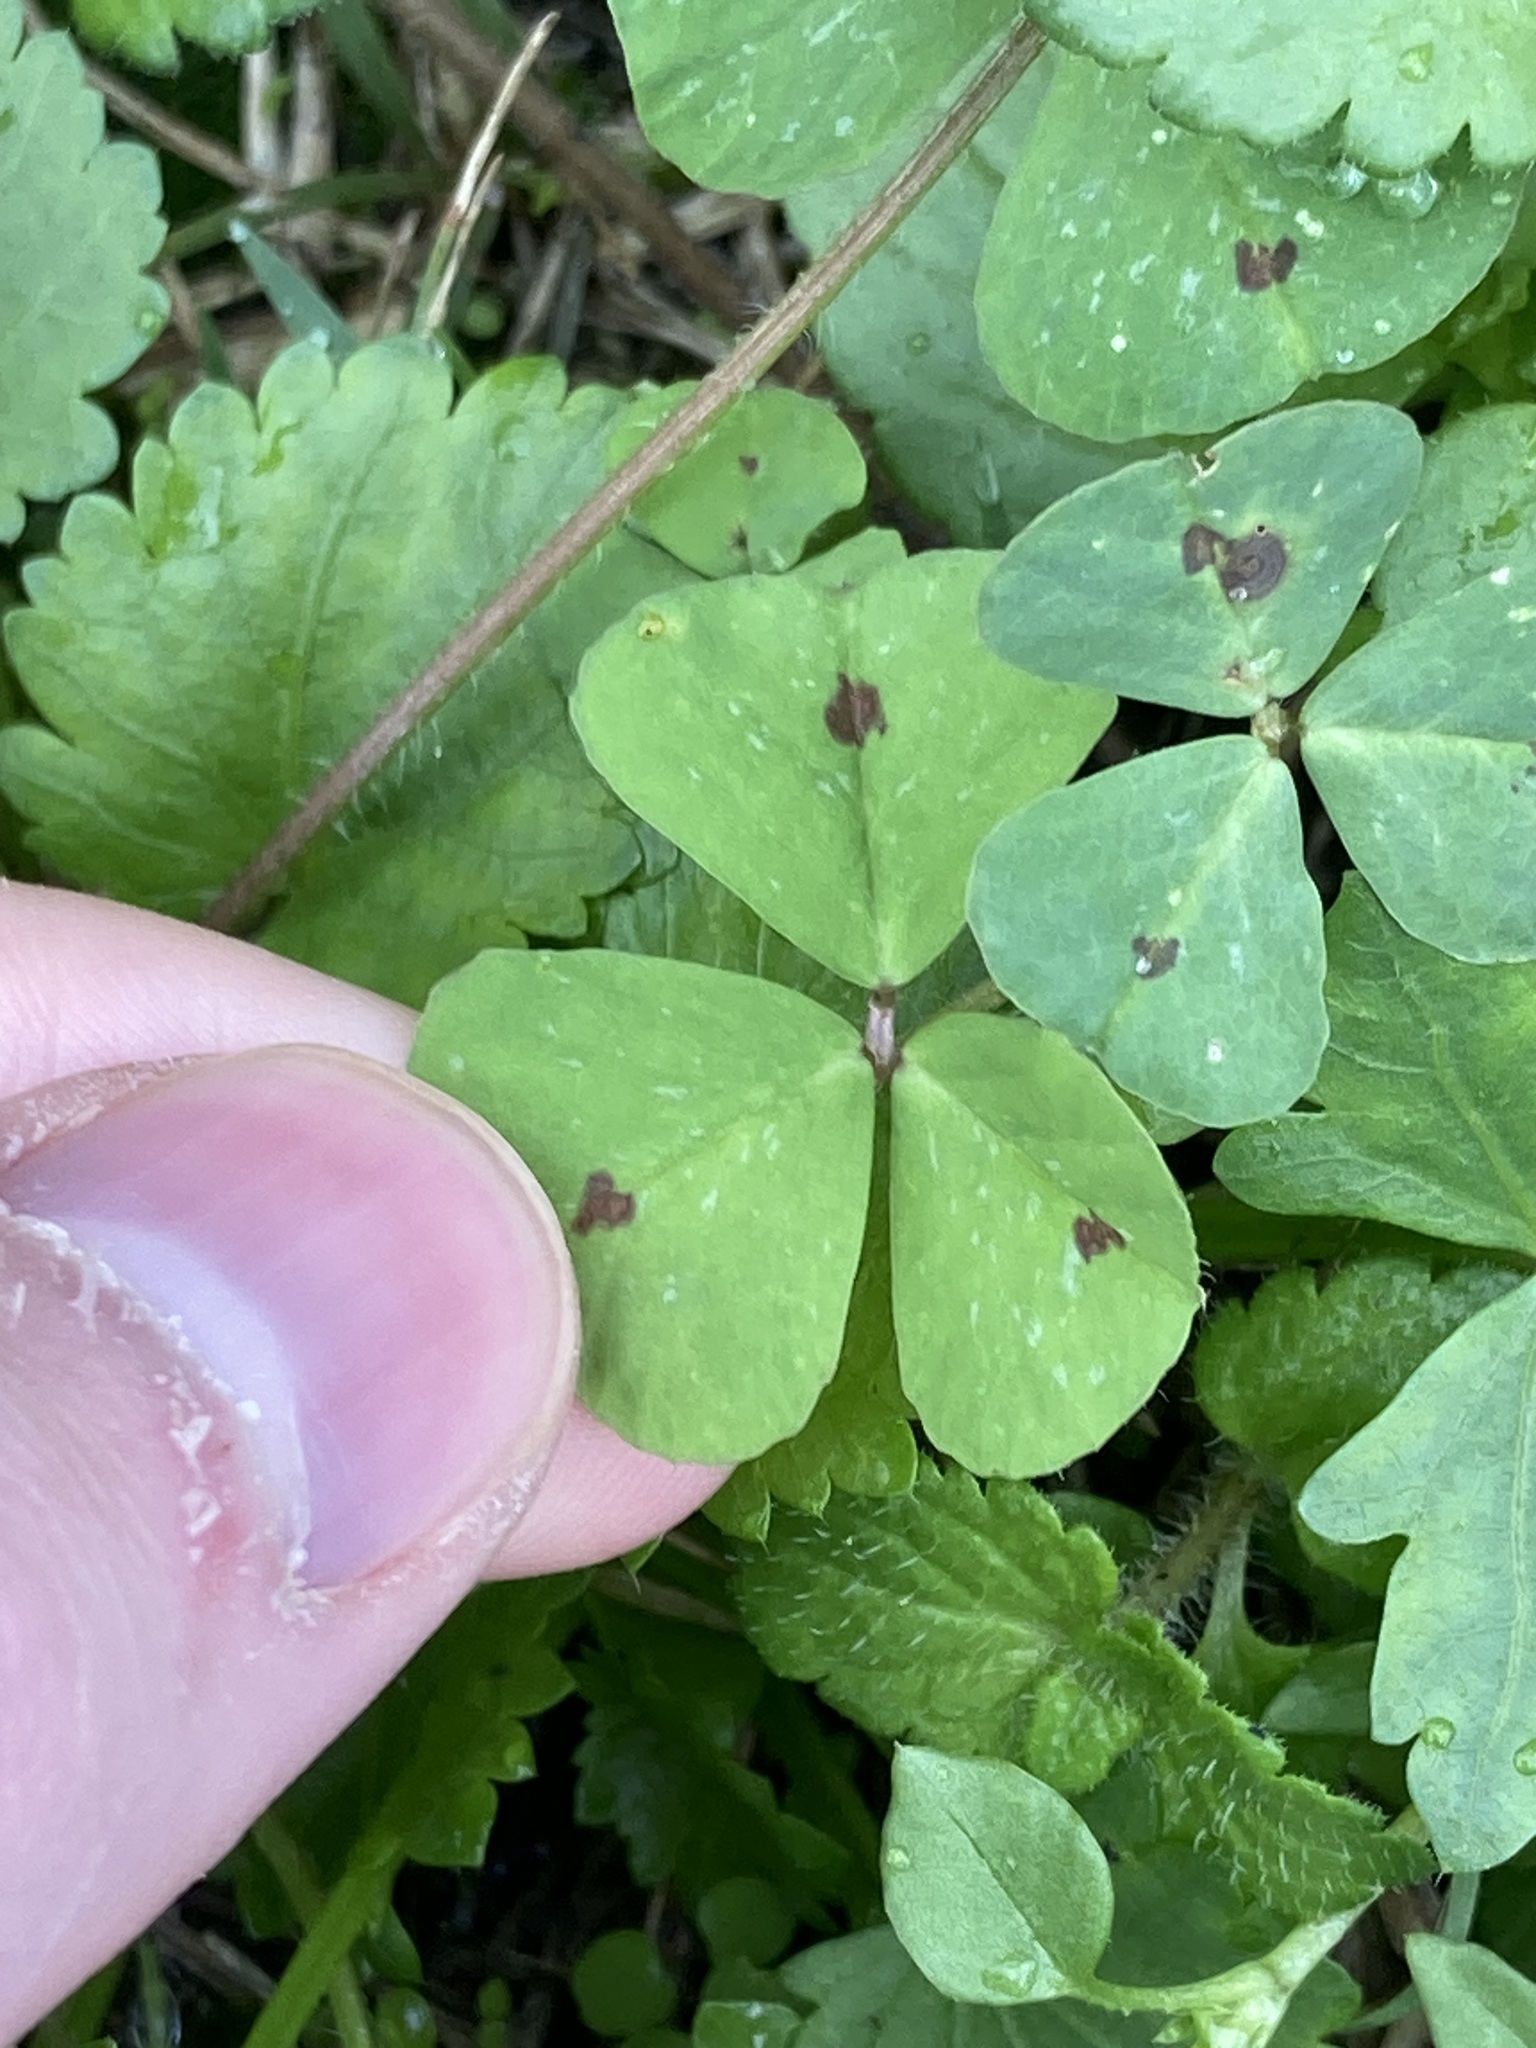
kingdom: Plantae
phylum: Tracheophyta
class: Magnoliopsida
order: Fabales
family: Fabaceae
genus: Medicago
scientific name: Medicago arabica
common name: Spotted medick
